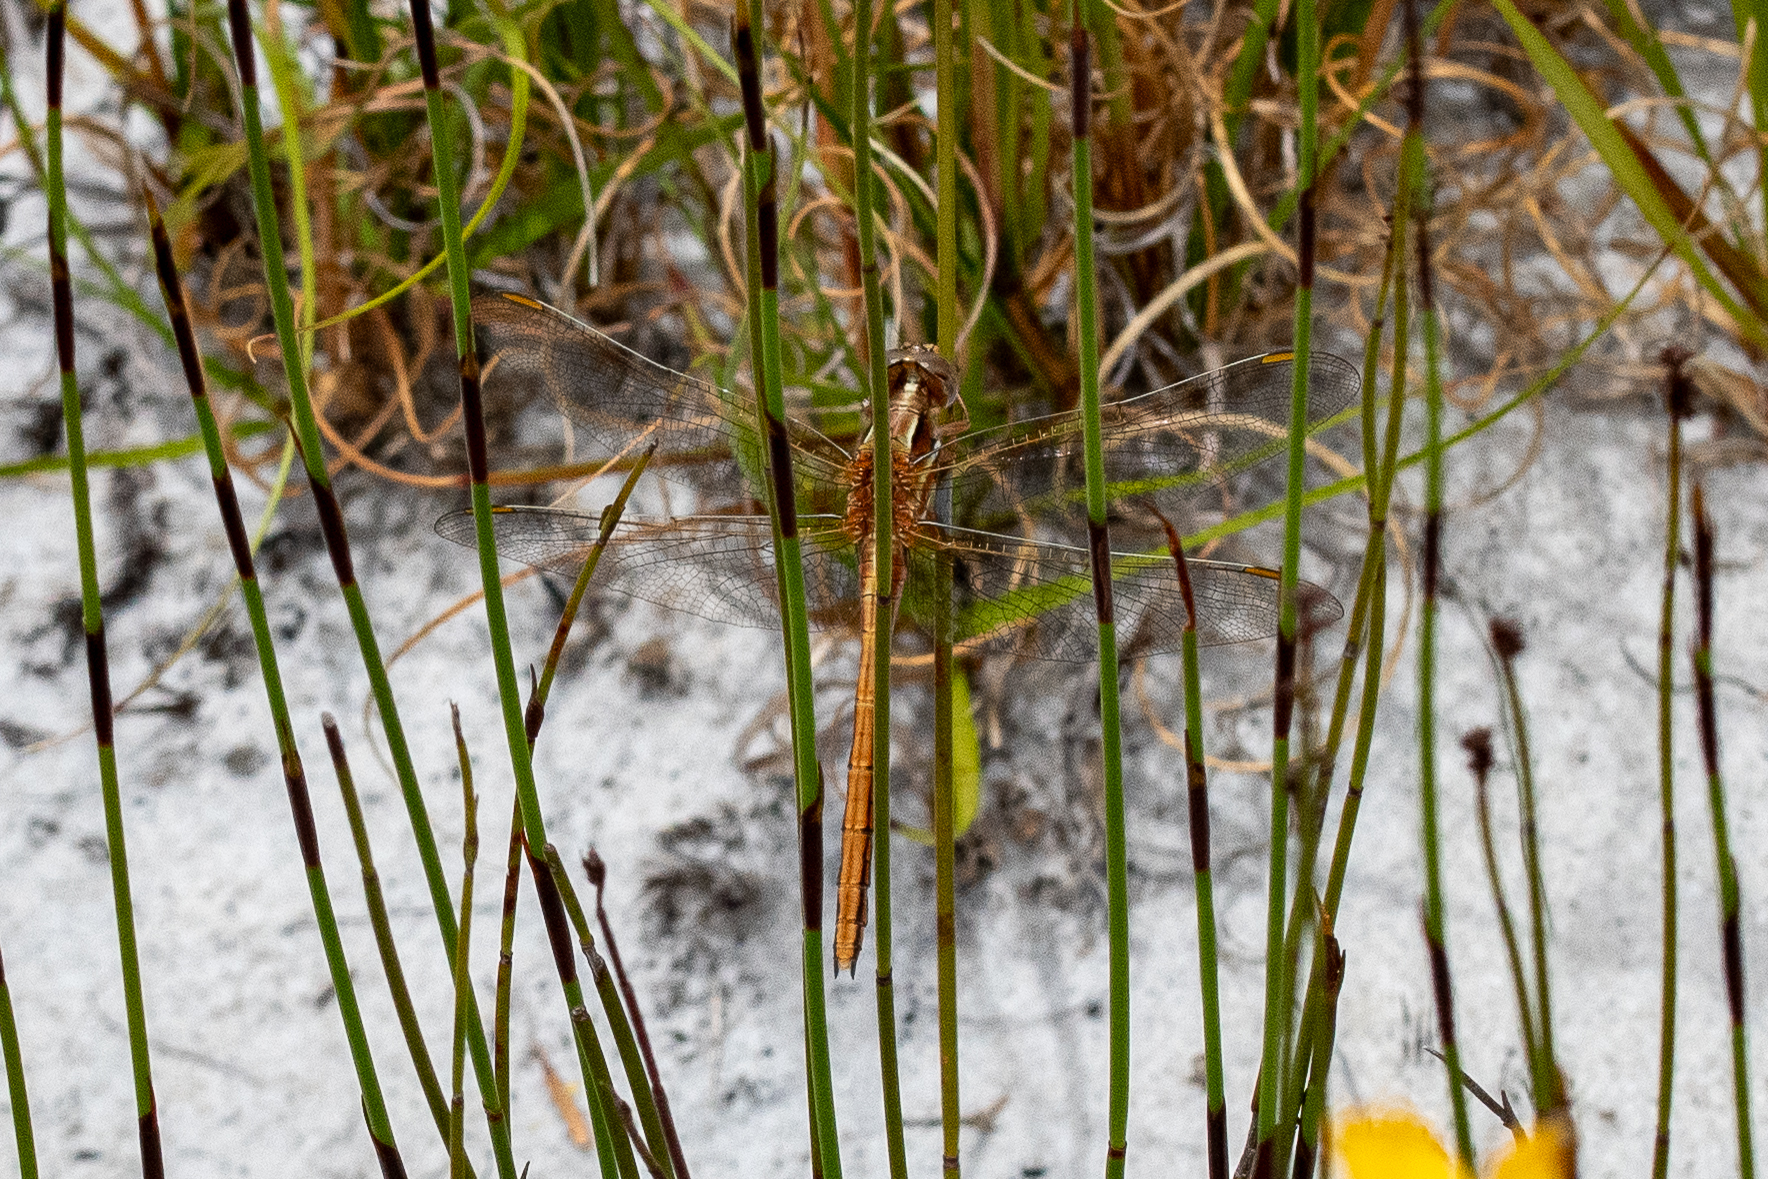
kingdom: Animalia
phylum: Arthropoda
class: Insecta
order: Odonata
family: Libellulidae
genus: Orthetrum
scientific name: Orthetrum caffrum
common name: Two-striped skimmer
